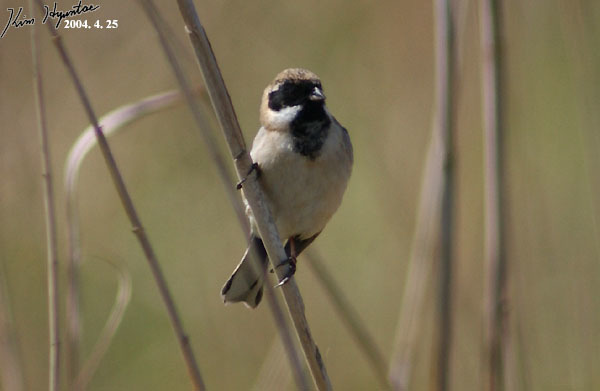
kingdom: Animalia
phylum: Chordata
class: Aves
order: Passeriformes
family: Emberizidae
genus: Emberiza
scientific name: Emberiza pallasi
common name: Pallas's reed bunting
